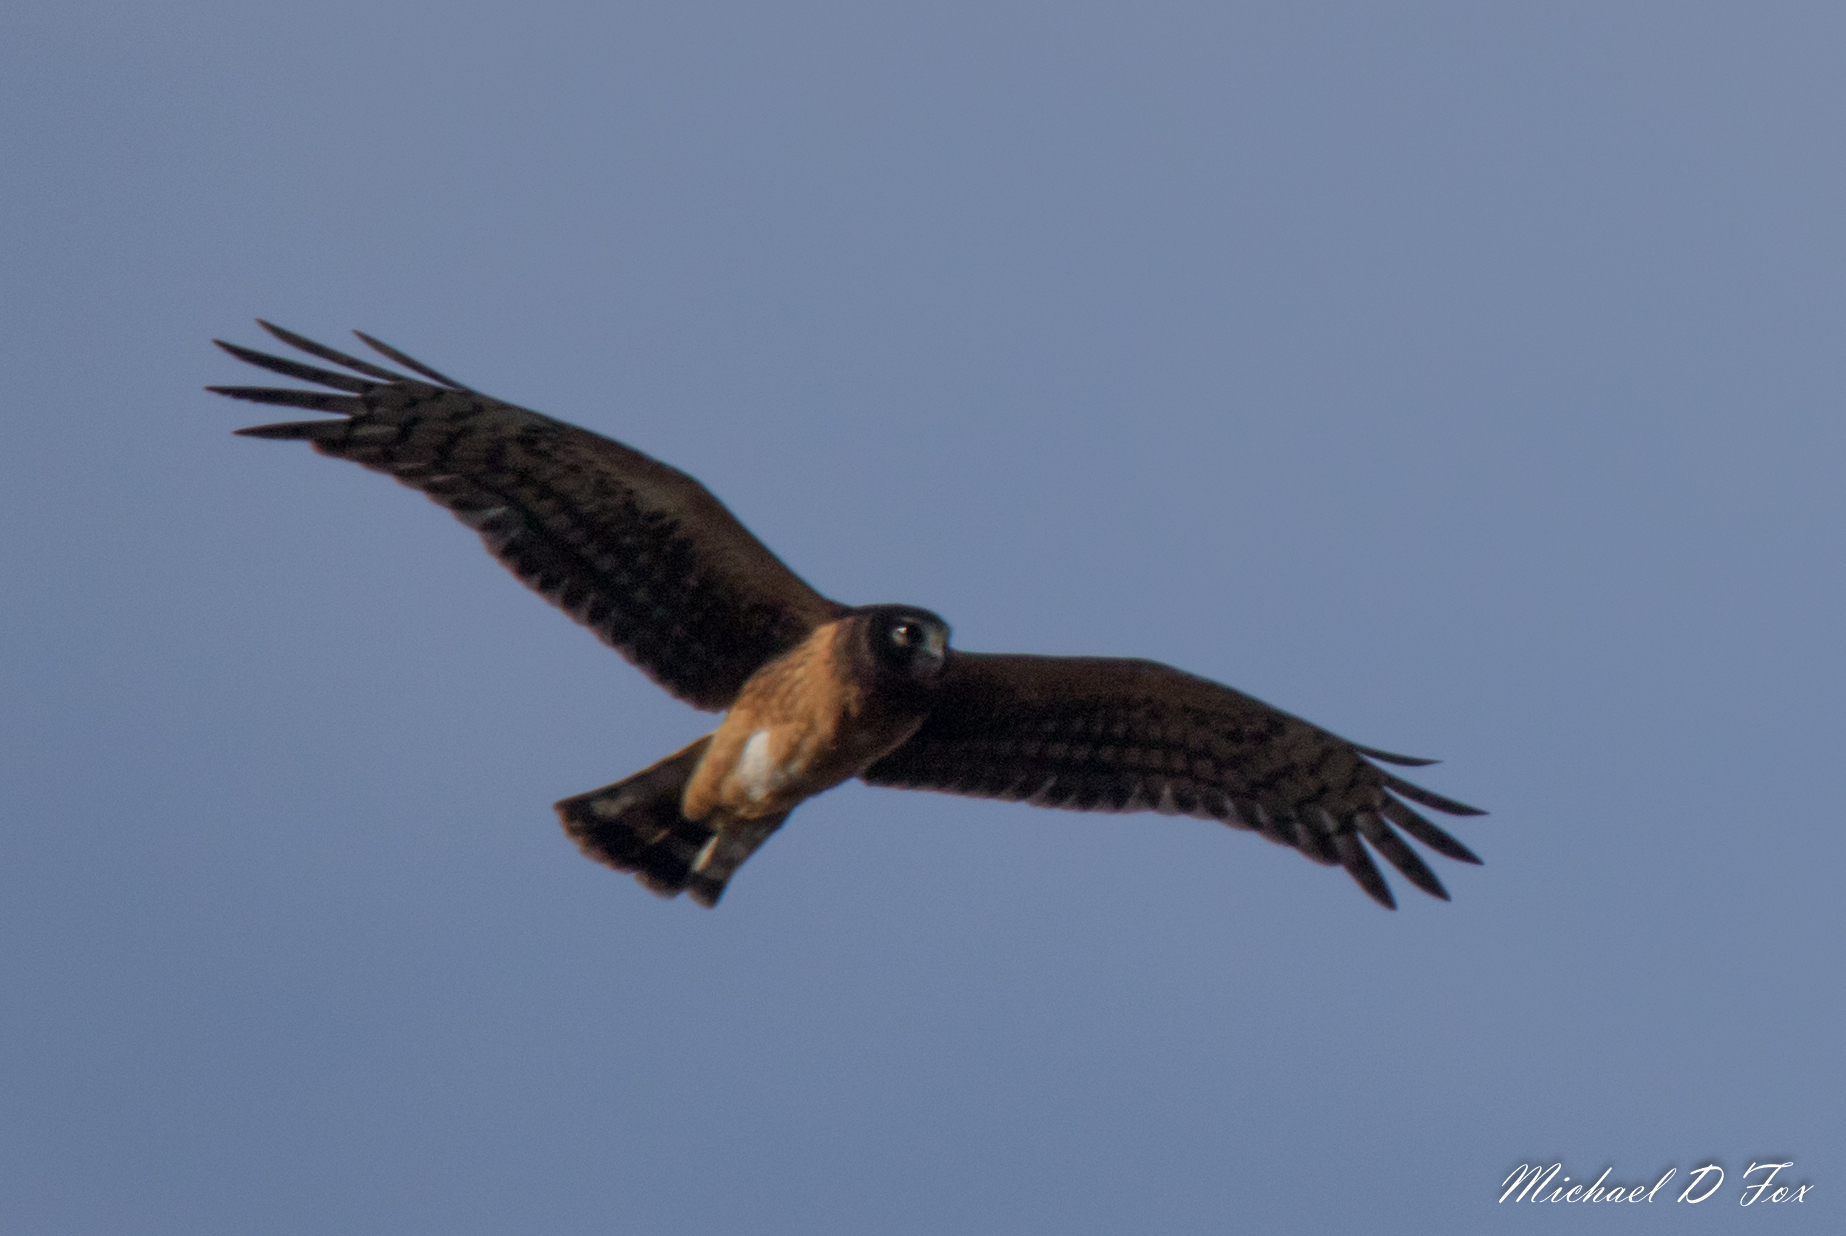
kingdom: Animalia
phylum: Chordata
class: Aves
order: Accipitriformes
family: Accipitridae
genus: Circus
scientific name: Circus cyaneus
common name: Hen harrier
